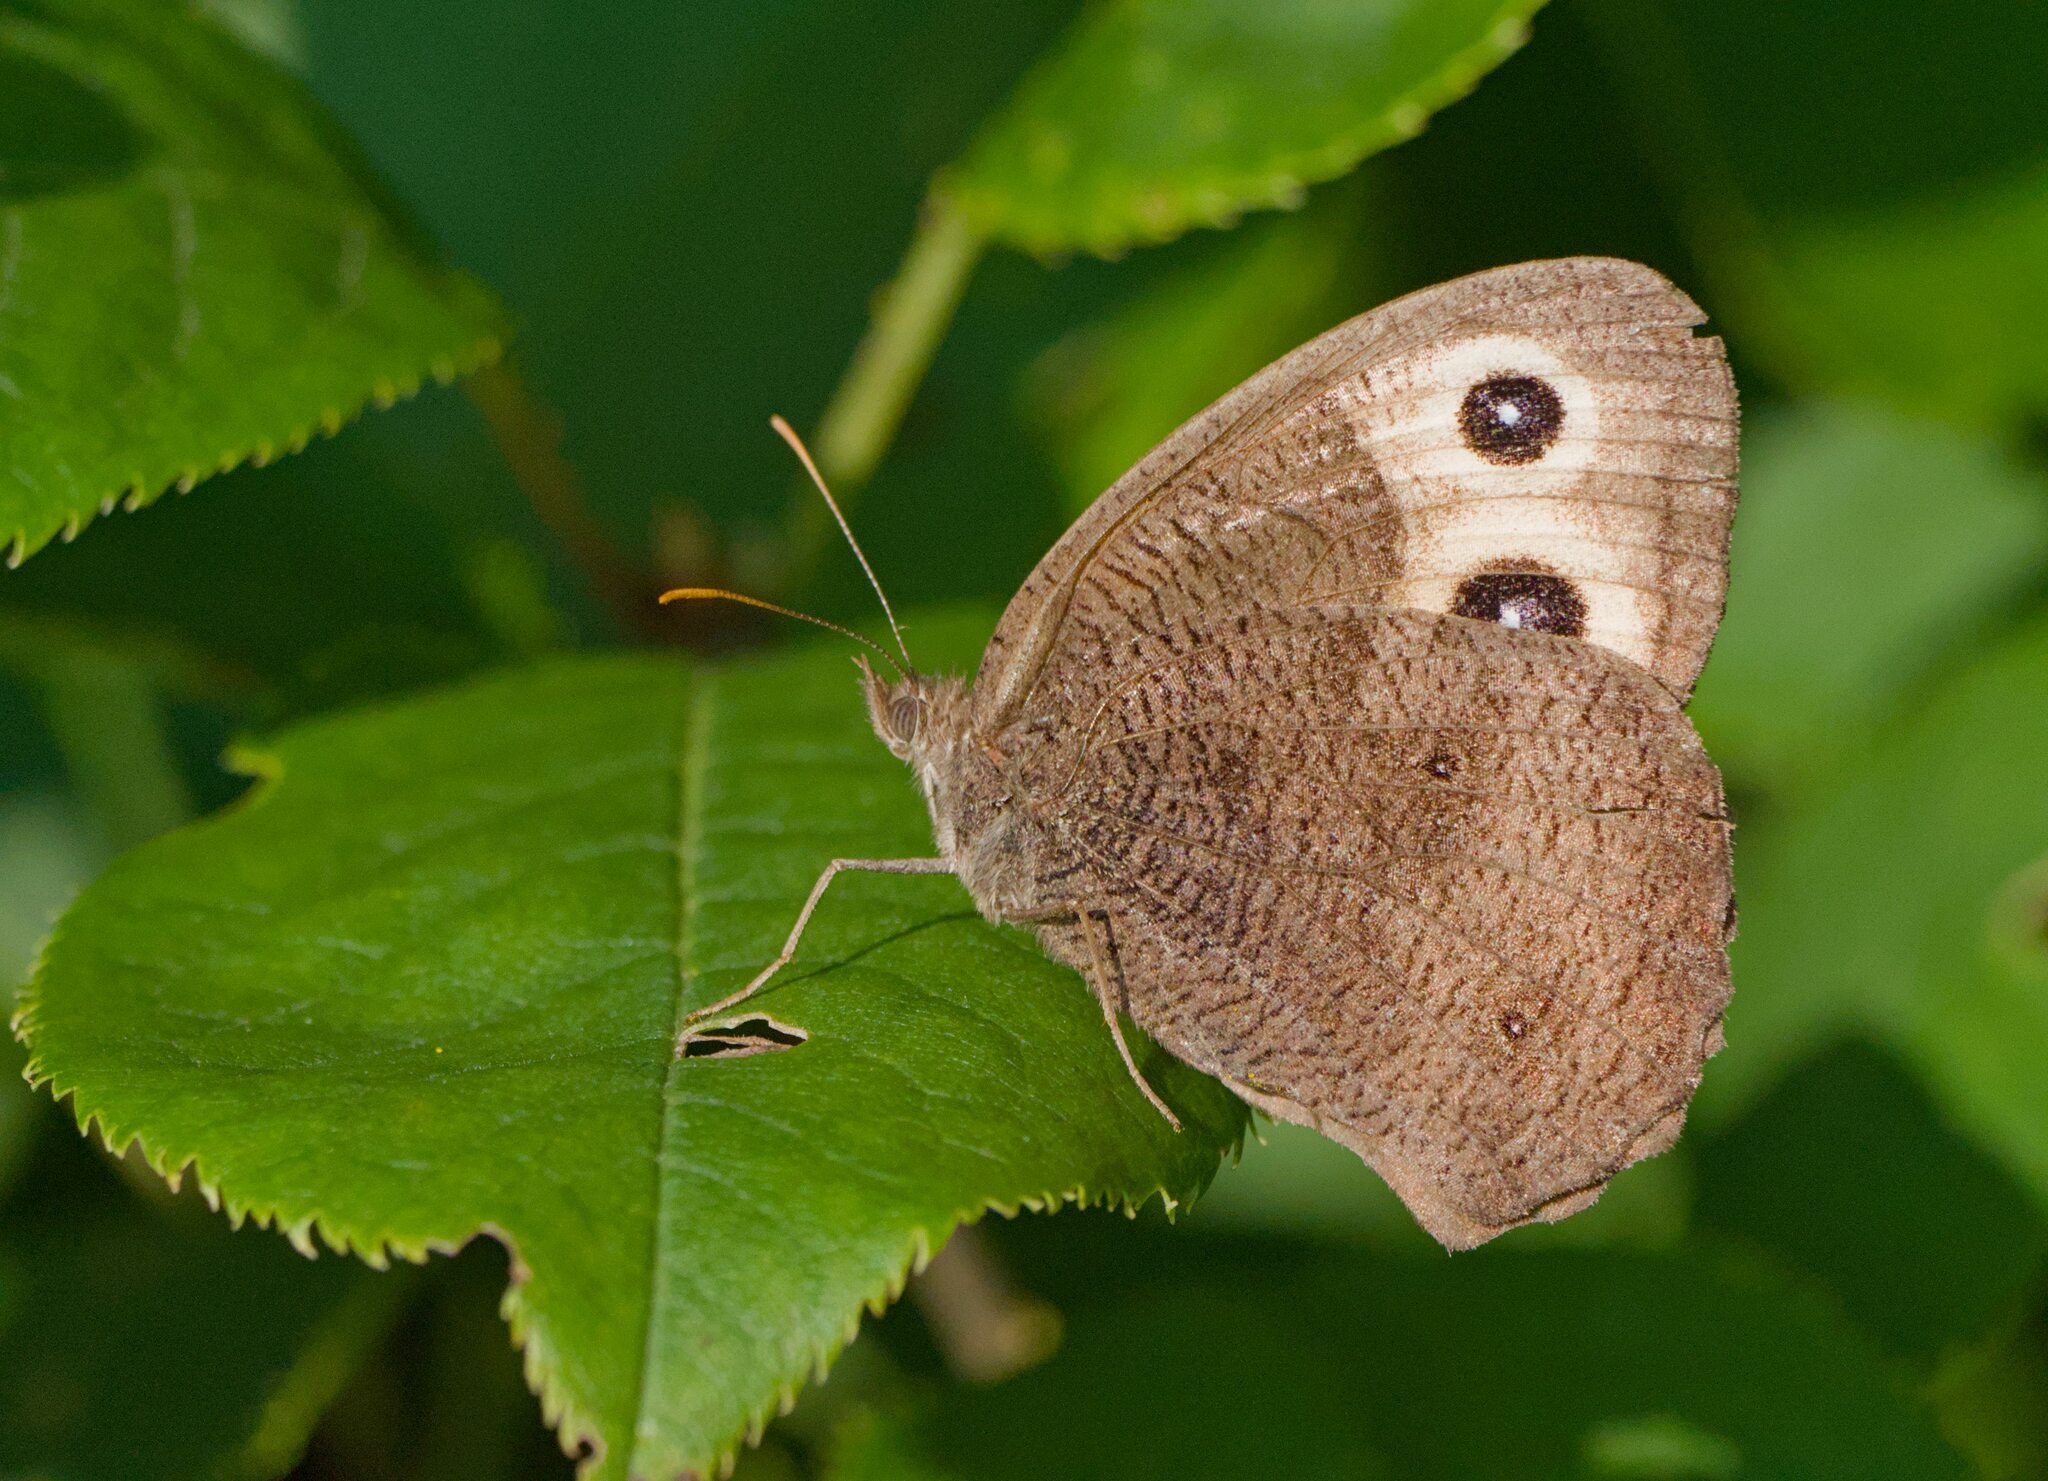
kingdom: Animalia
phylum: Arthropoda
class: Insecta
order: Lepidoptera
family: Nymphalidae
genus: Cercyonis
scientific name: Cercyonis pegala
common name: Common wood-nymph
